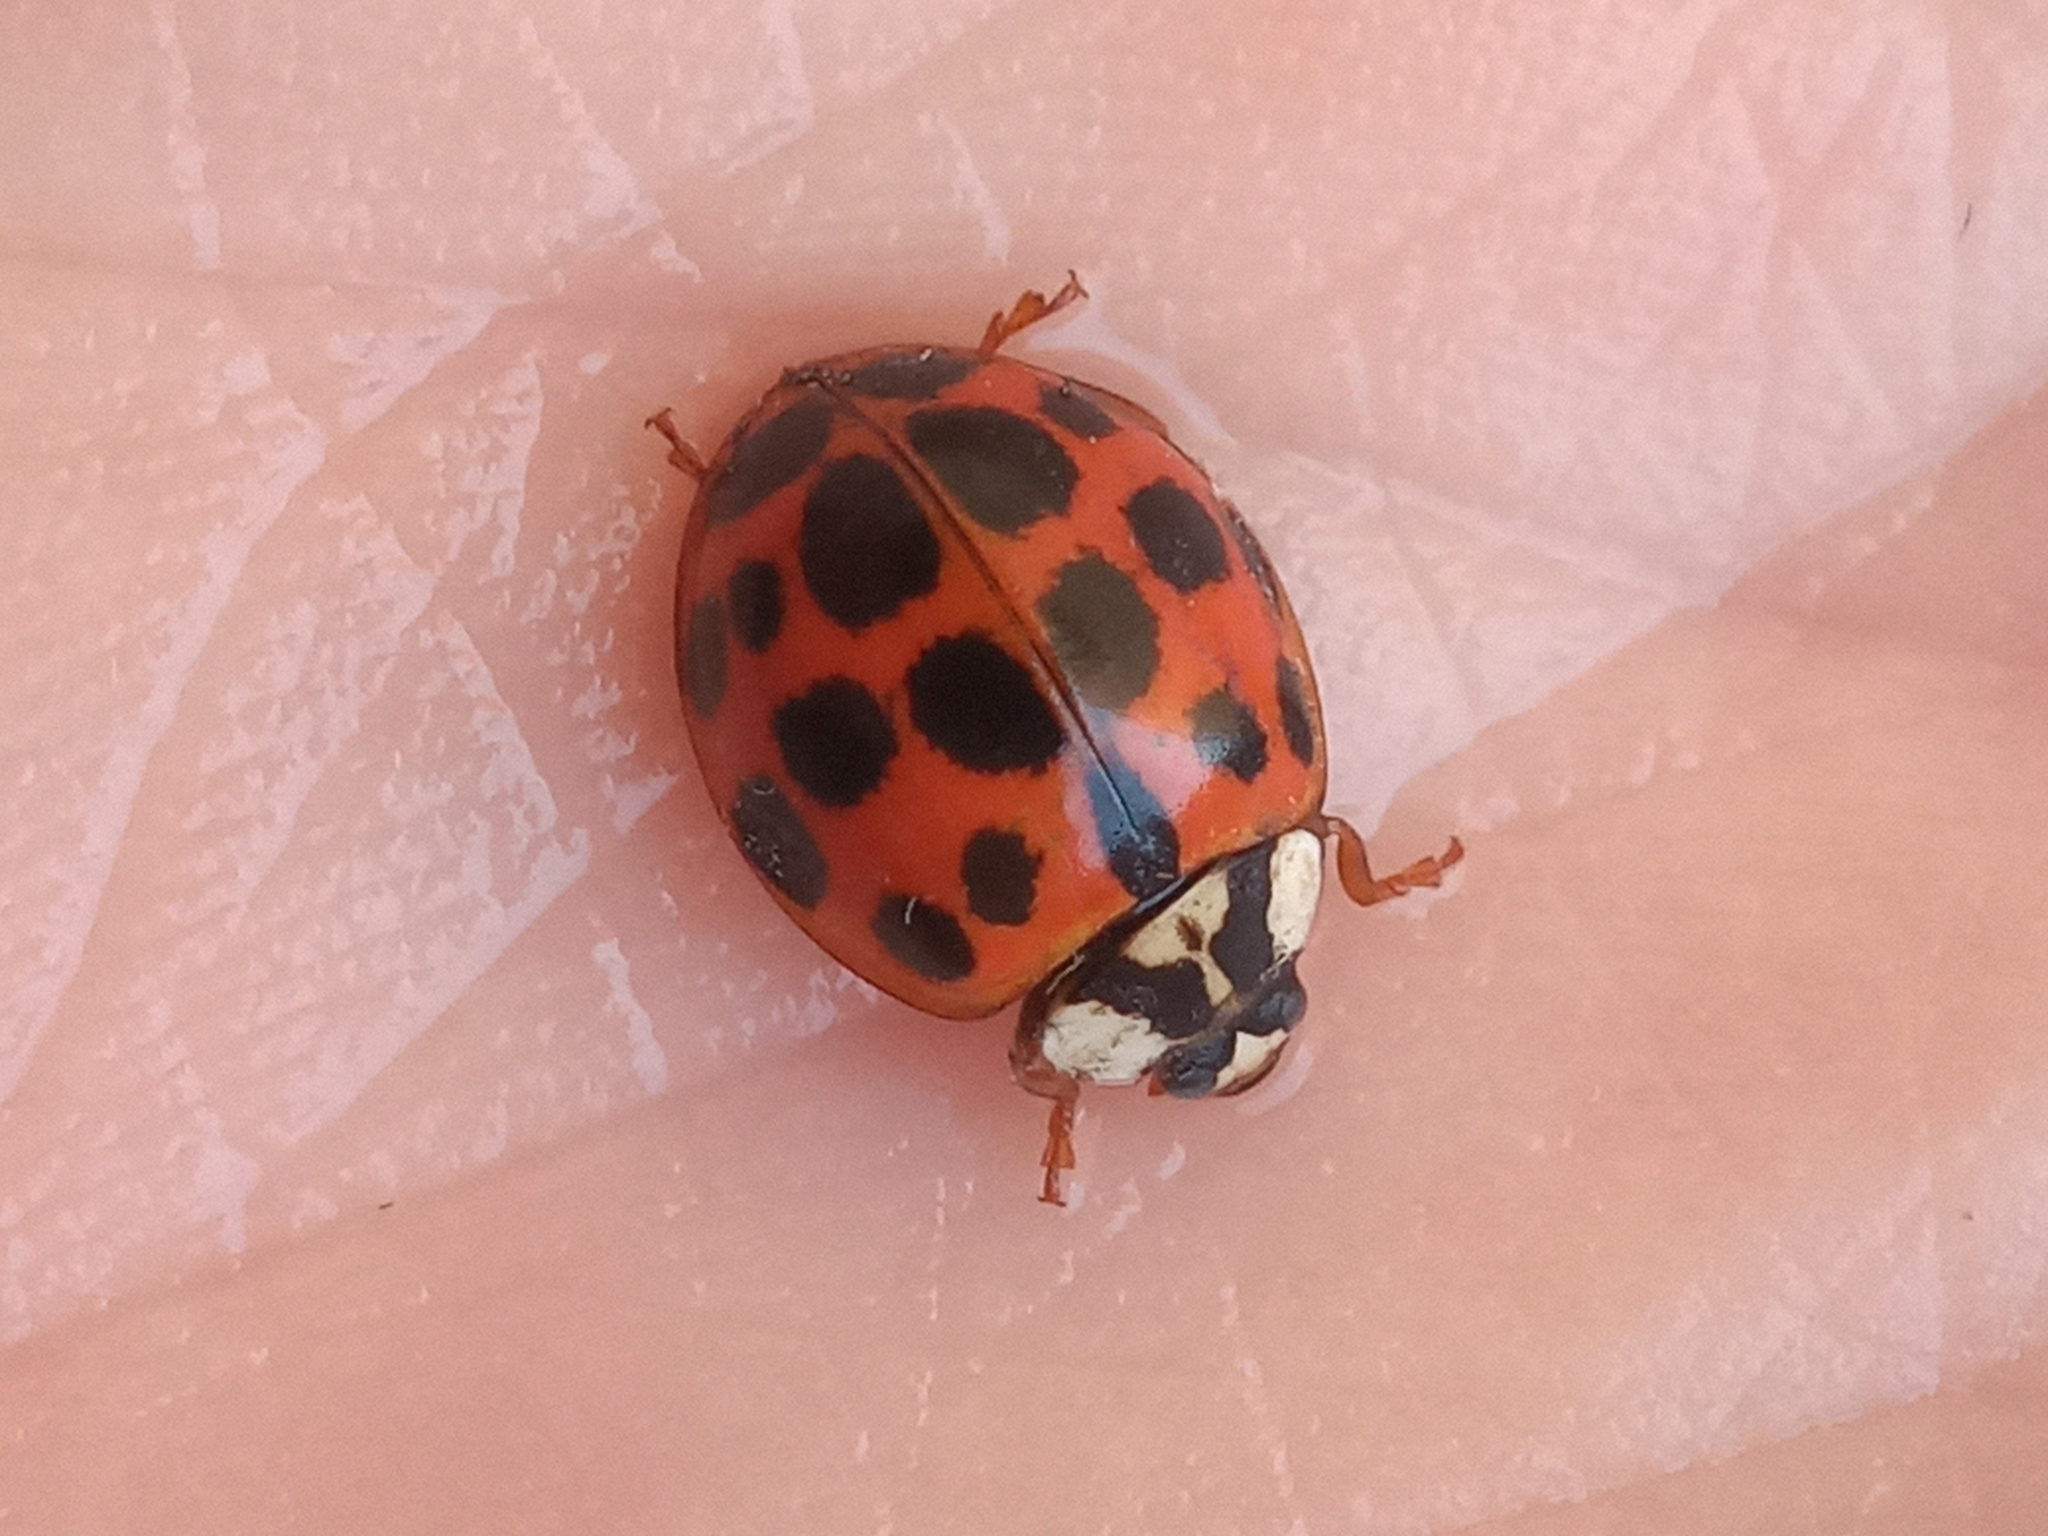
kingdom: Animalia
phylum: Arthropoda
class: Insecta
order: Coleoptera
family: Coccinellidae
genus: Harmonia
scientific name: Harmonia axyridis
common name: Harlequin ladybird
